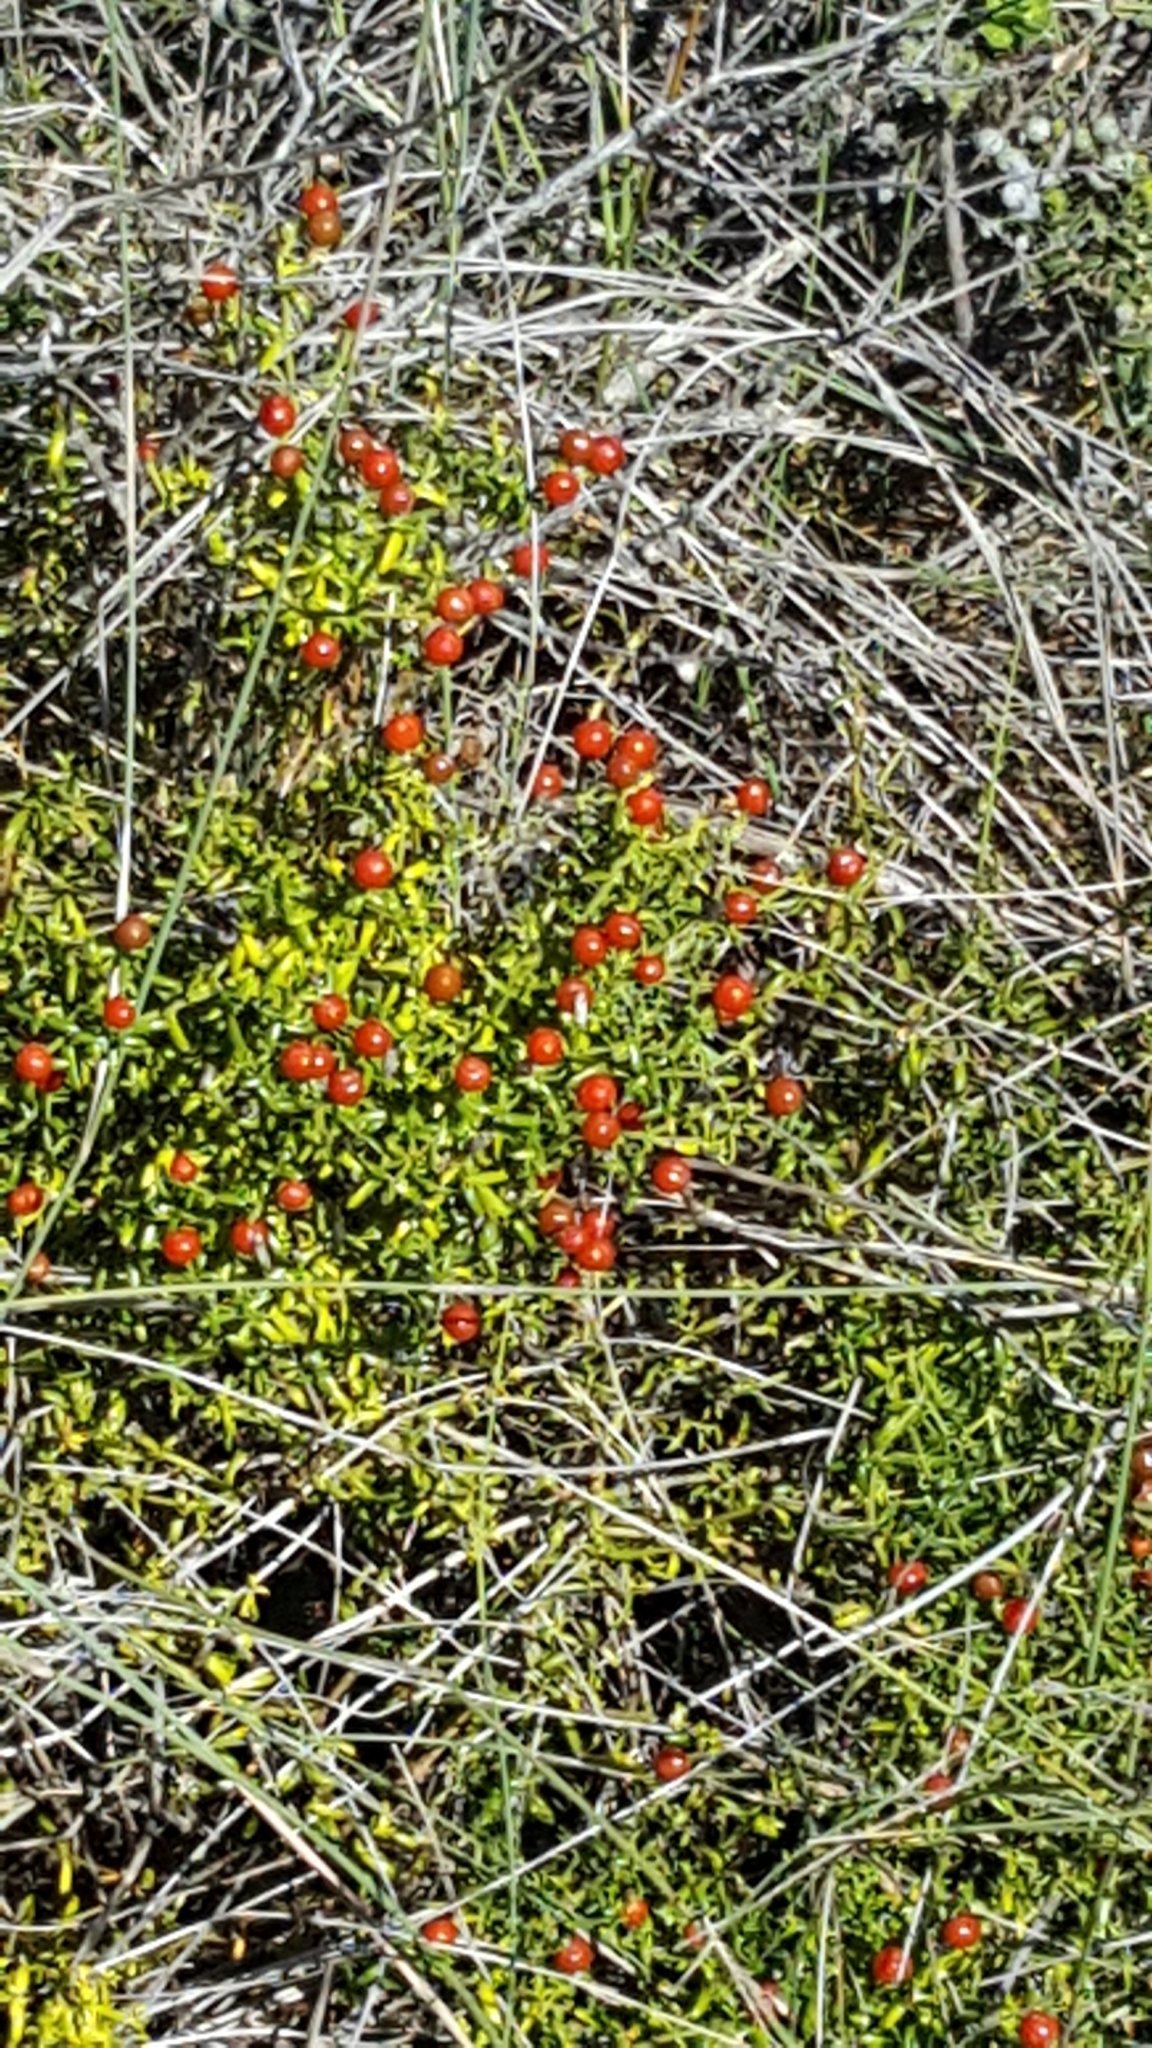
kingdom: Plantae
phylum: Tracheophyta
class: Magnoliopsida
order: Gentianales
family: Gentianaceae
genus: Chironia
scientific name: Chironia baccifera
